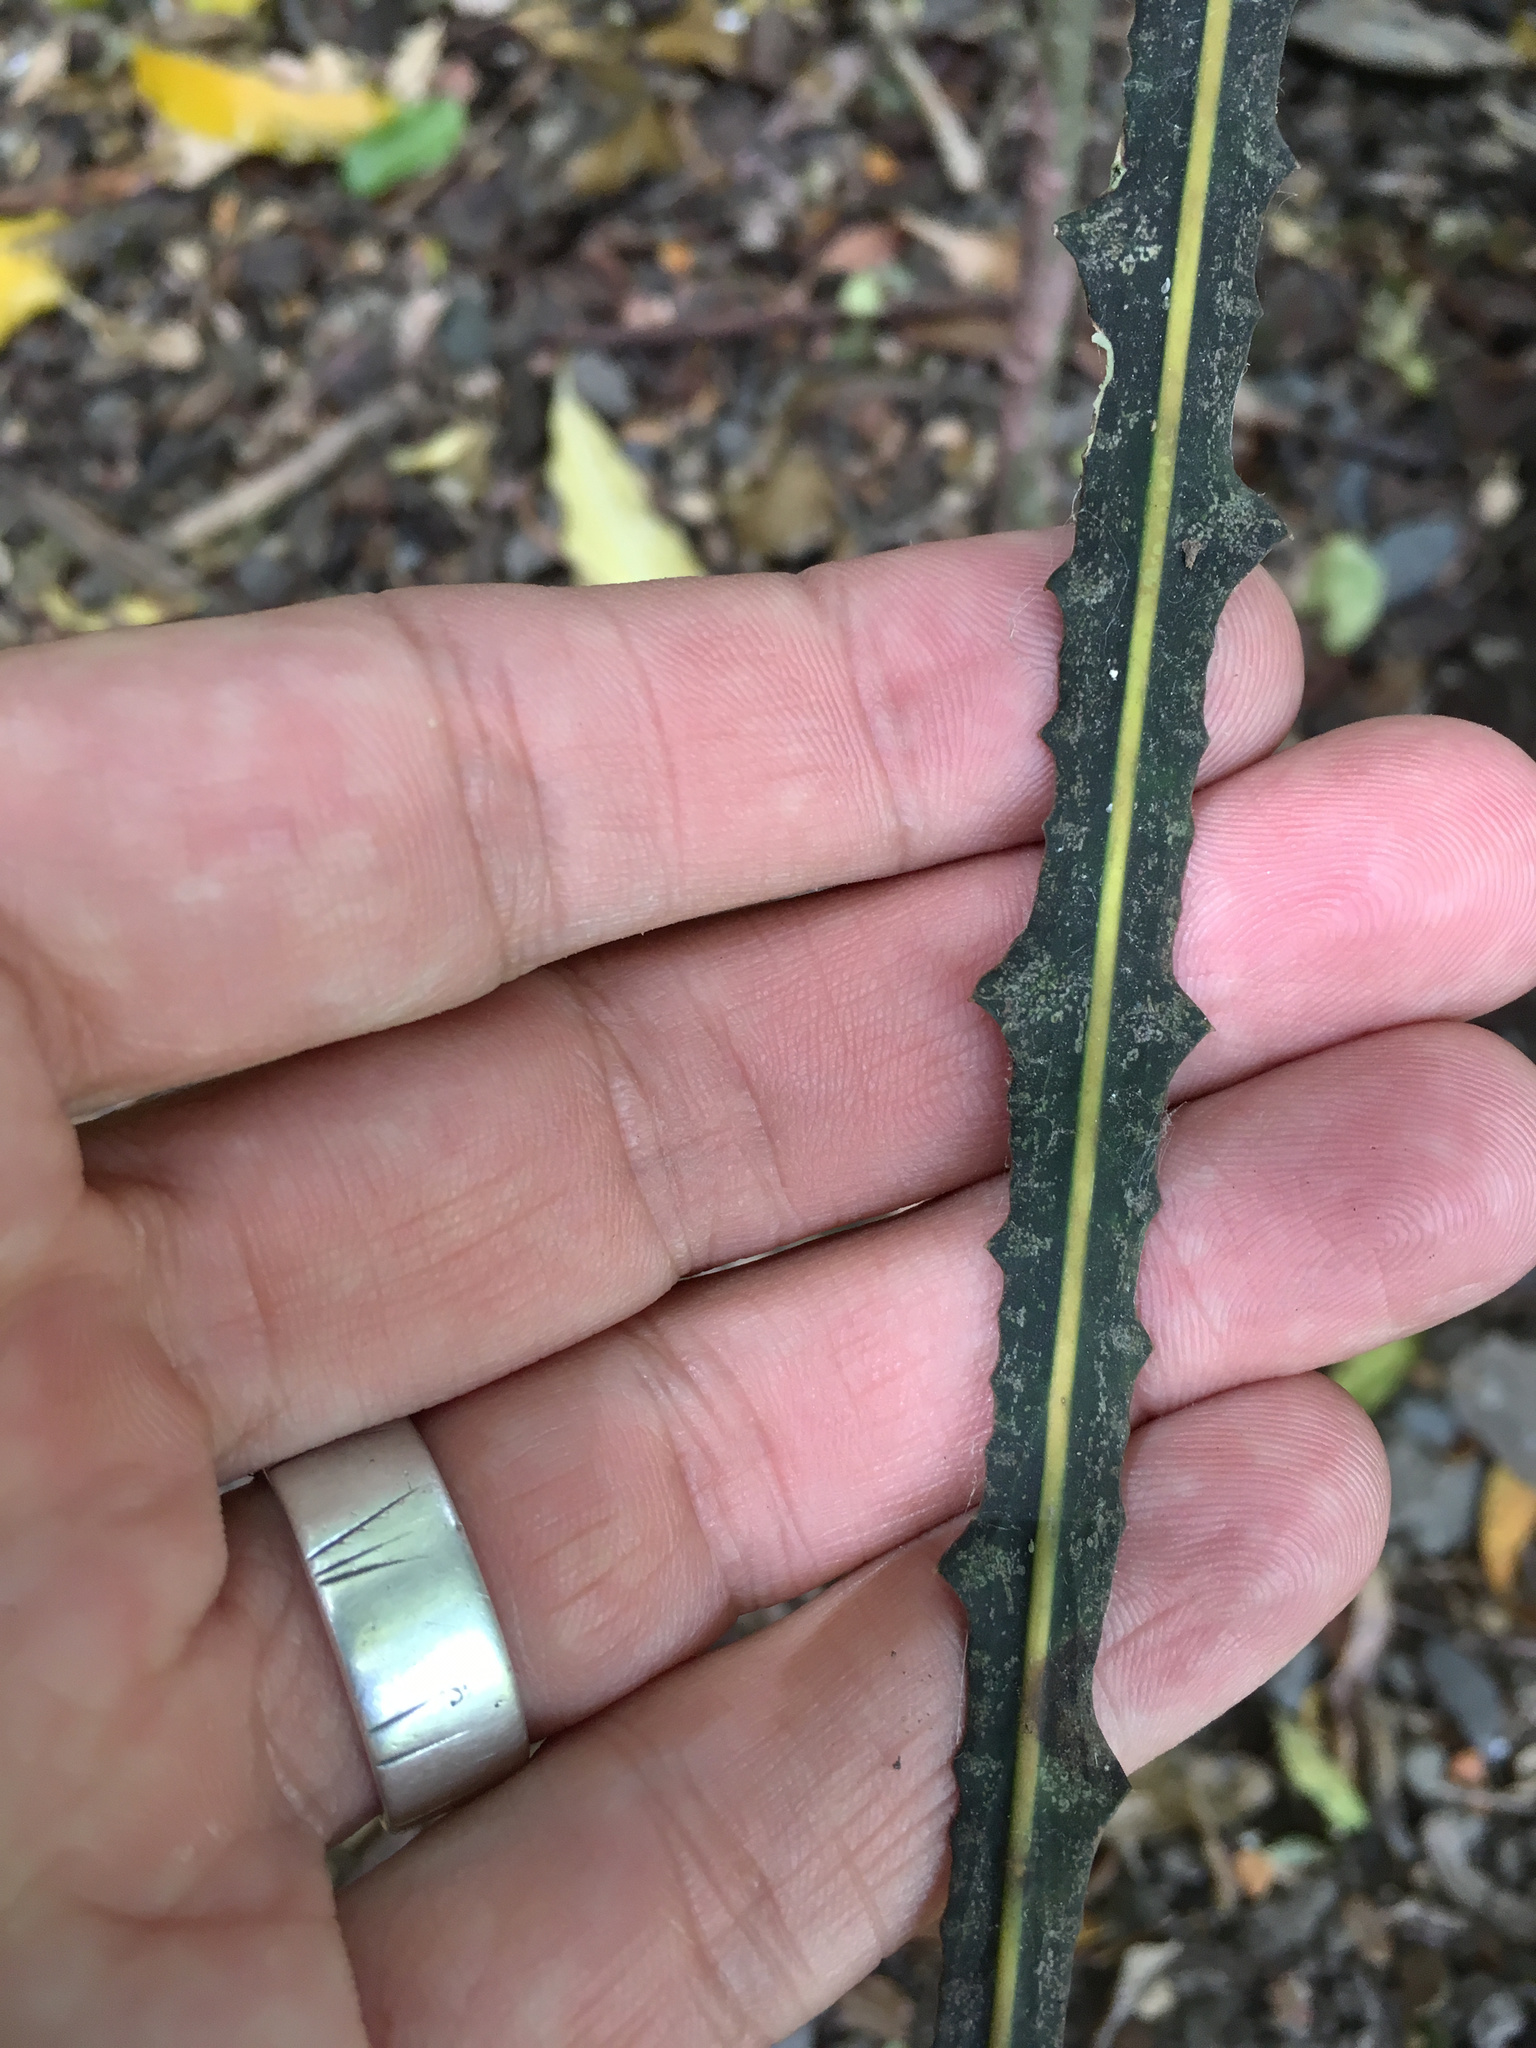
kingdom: Plantae
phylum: Tracheophyta
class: Magnoliopsida
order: Apiales
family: Araliaceae
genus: Pseudopanax
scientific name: Pseudopanax ferox
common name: Fierce lancewood
